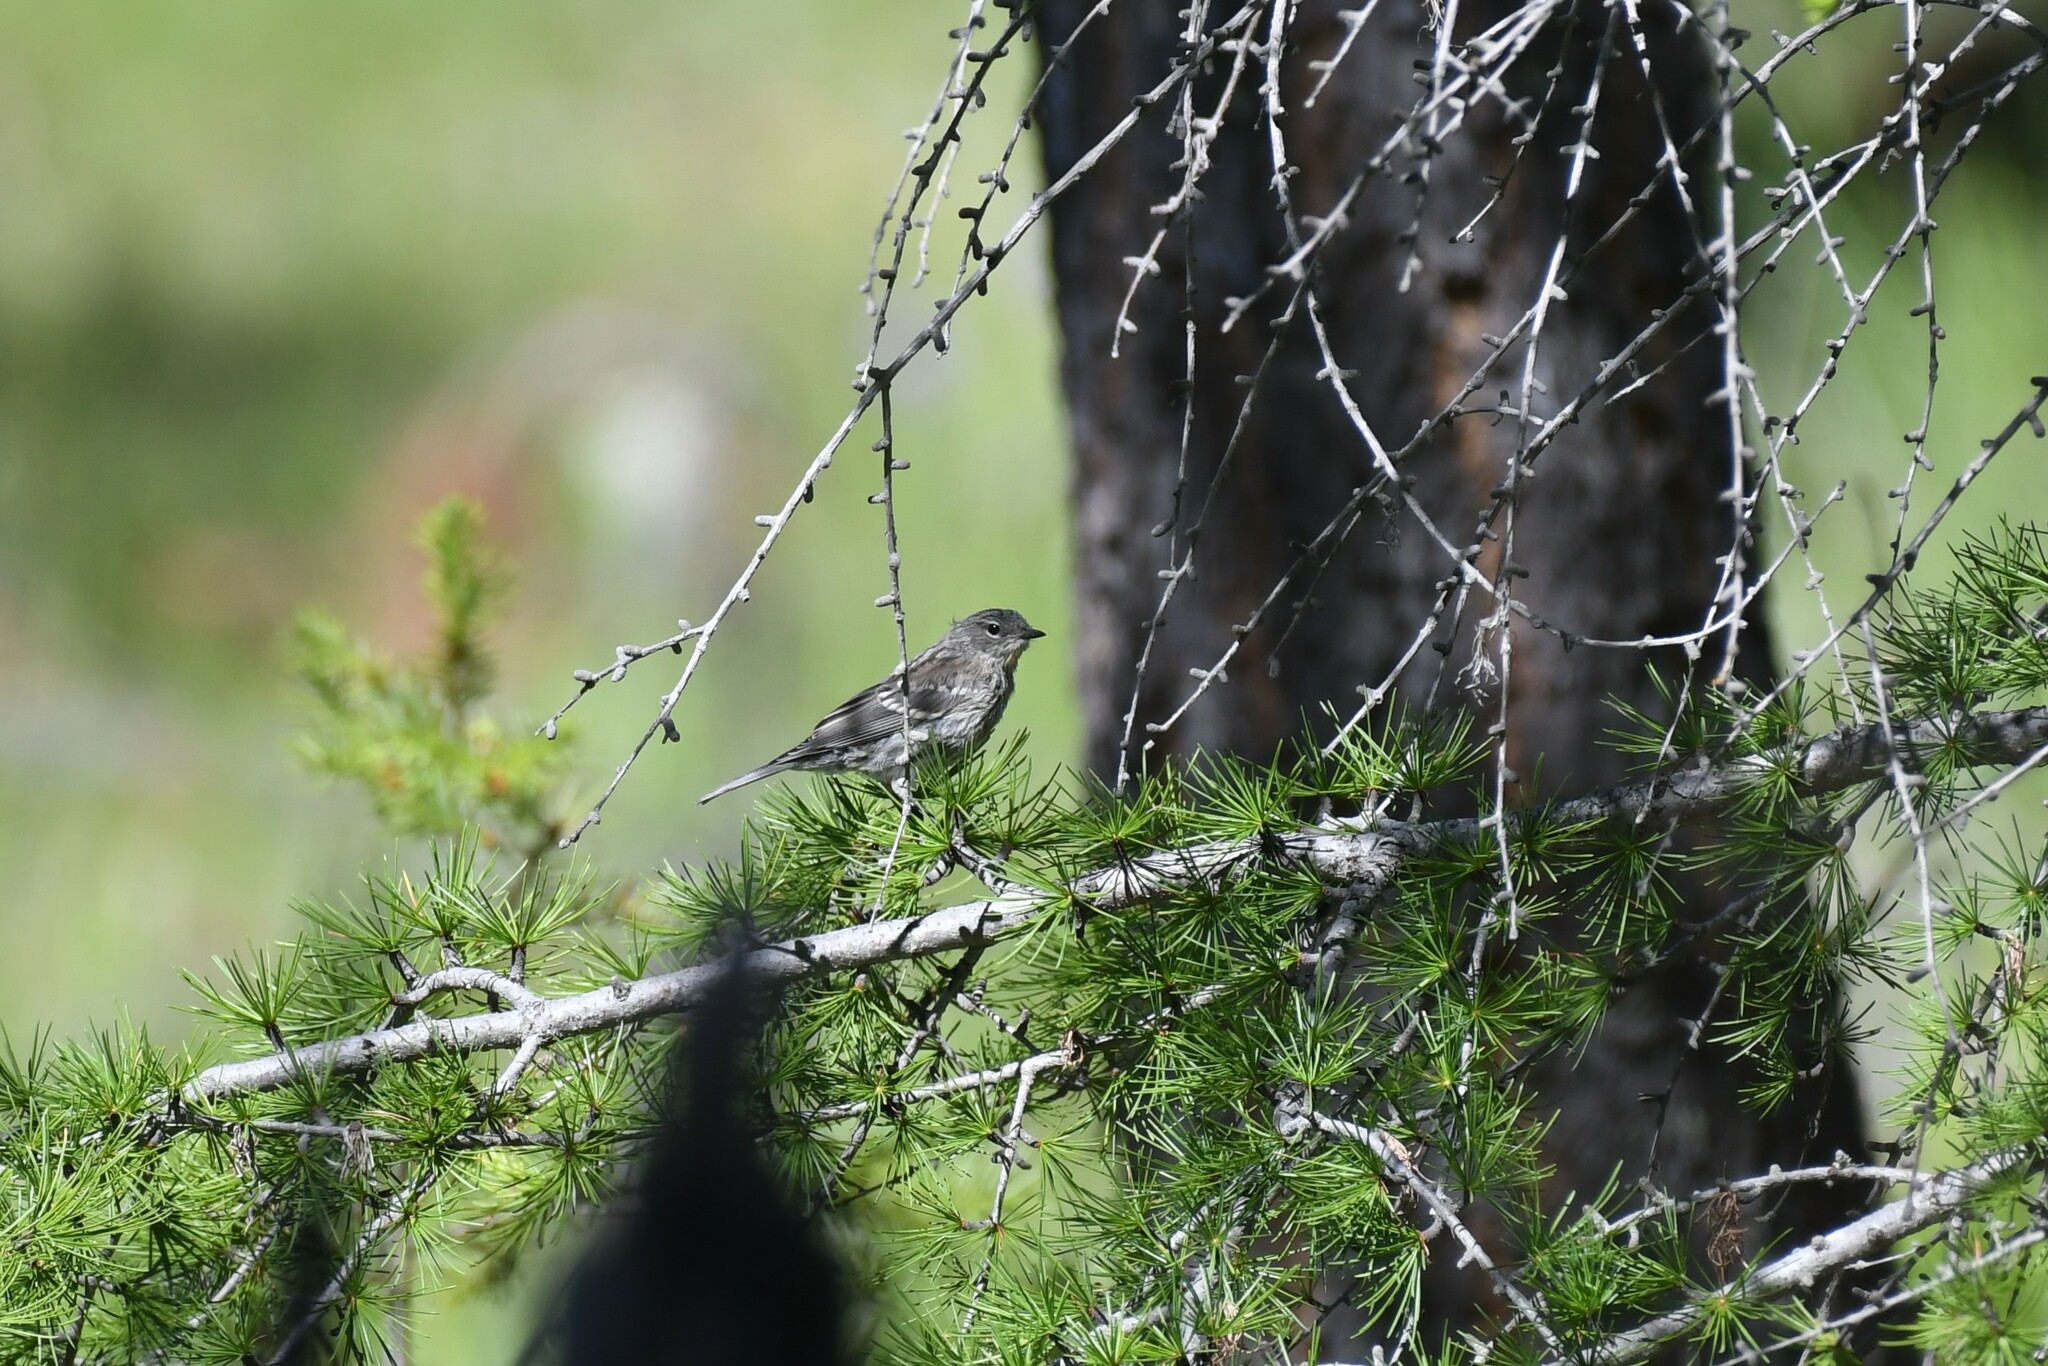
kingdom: Animalia
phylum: Chordata
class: Aves
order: Passeriformes
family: Parulidae
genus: Setophaga
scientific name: Setophaga coronata
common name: Myrtle warbler
